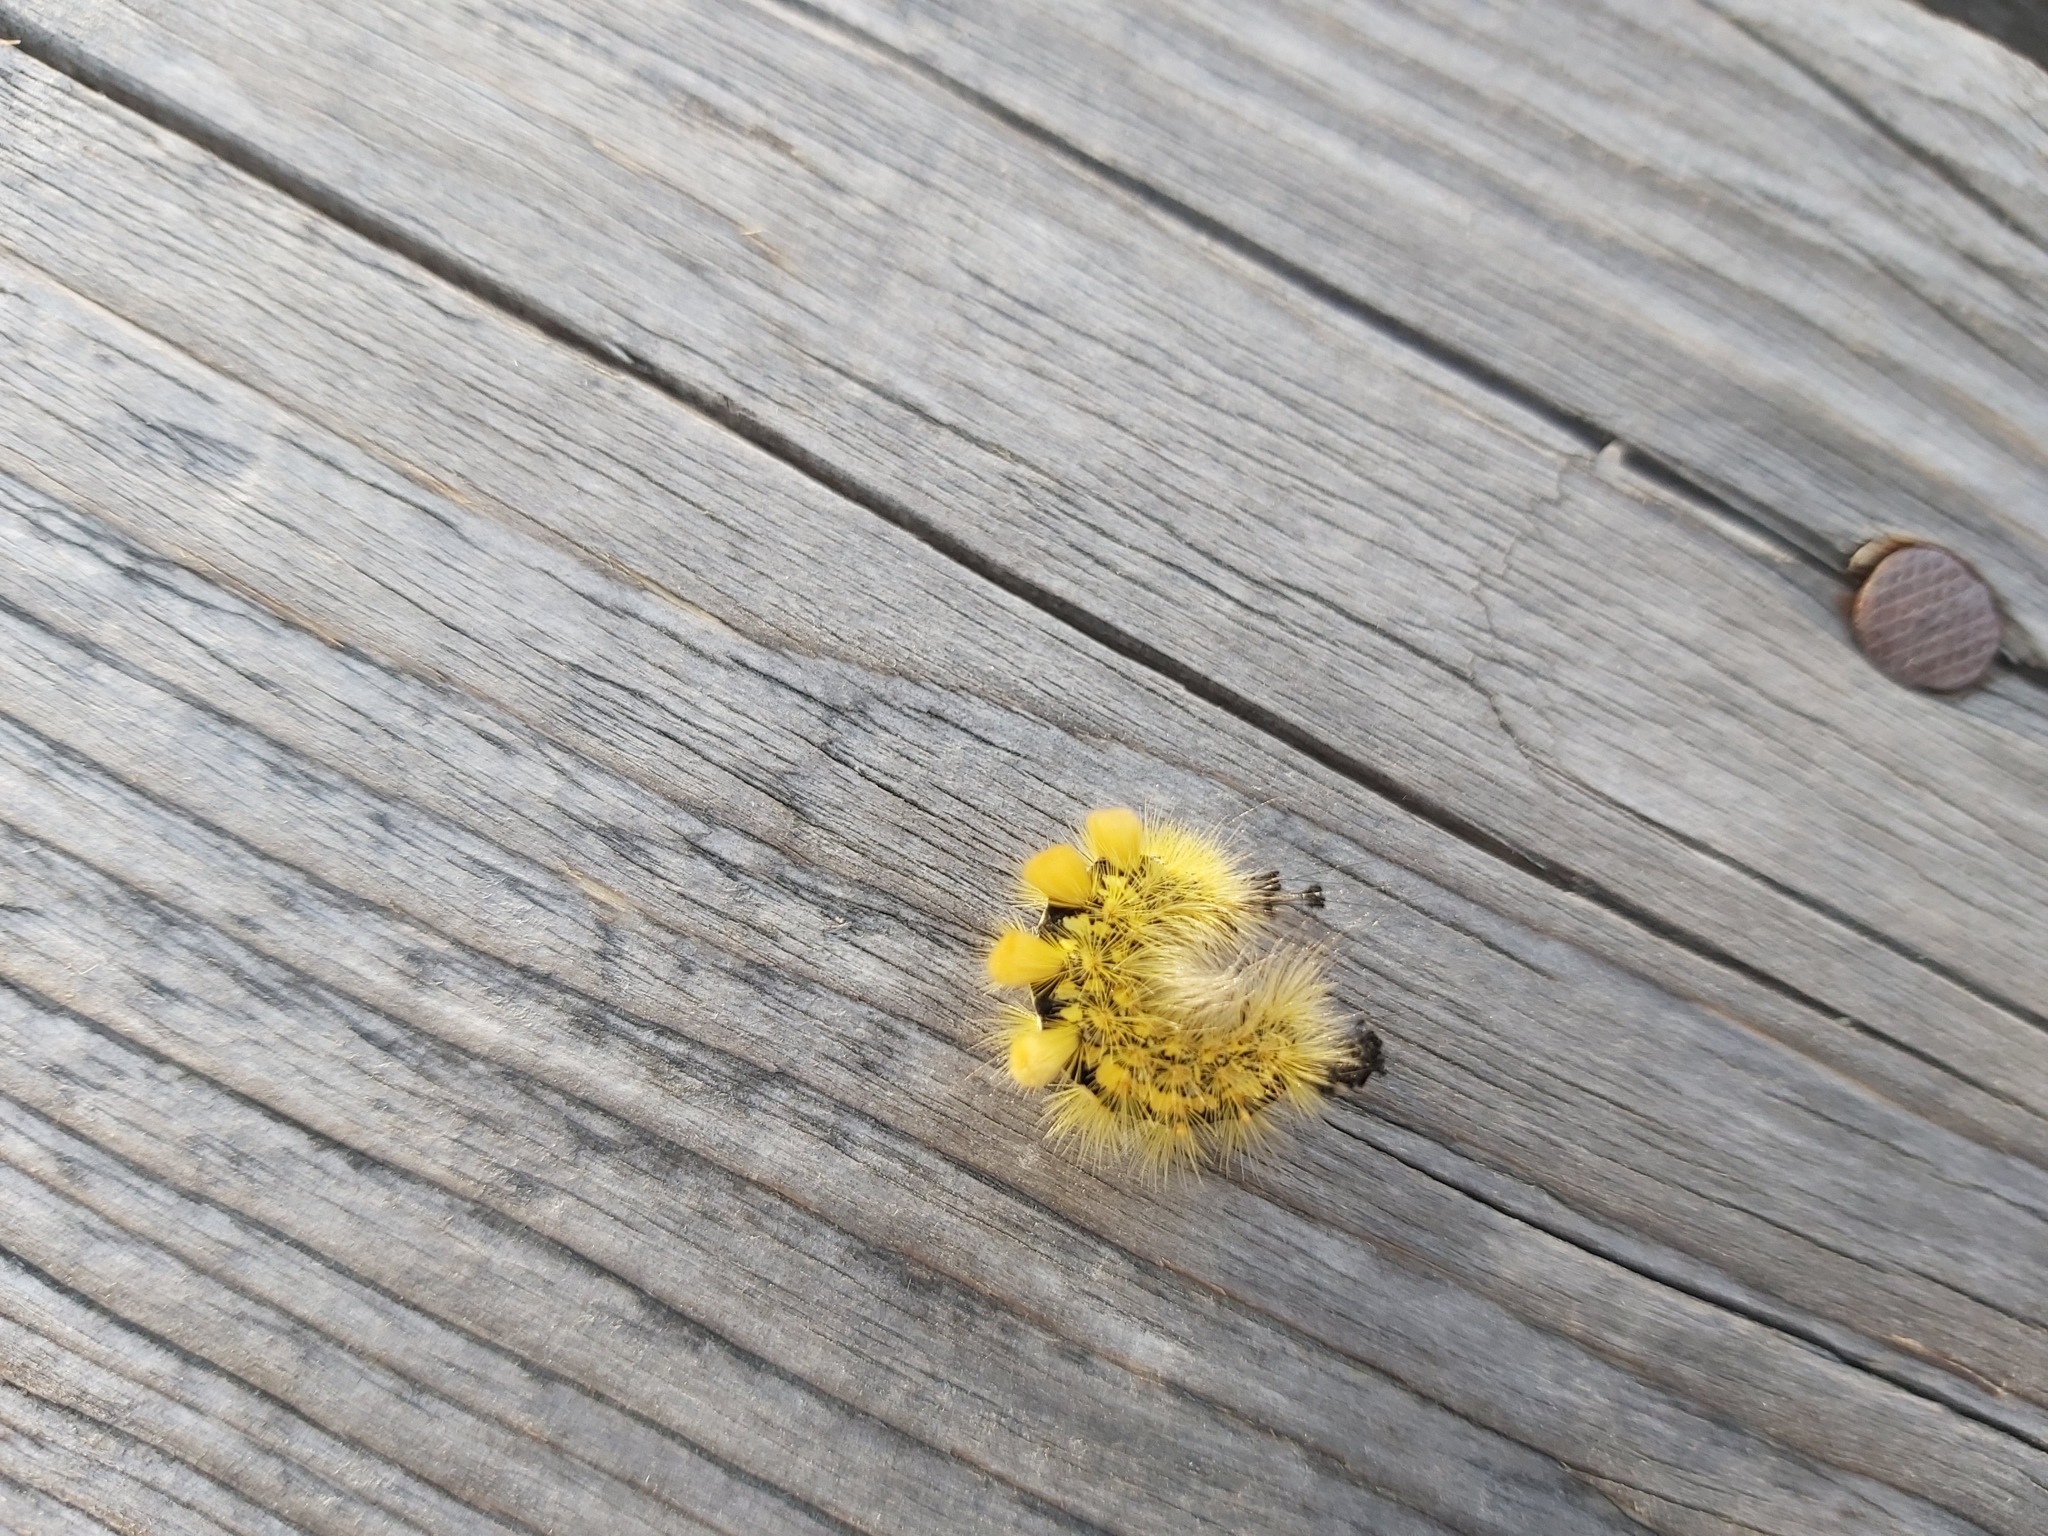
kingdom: Animalia
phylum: Arthropoda
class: Insecta
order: Lepidoptera
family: Erebidae
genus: Orgyia
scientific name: Orgyia antiquoides
